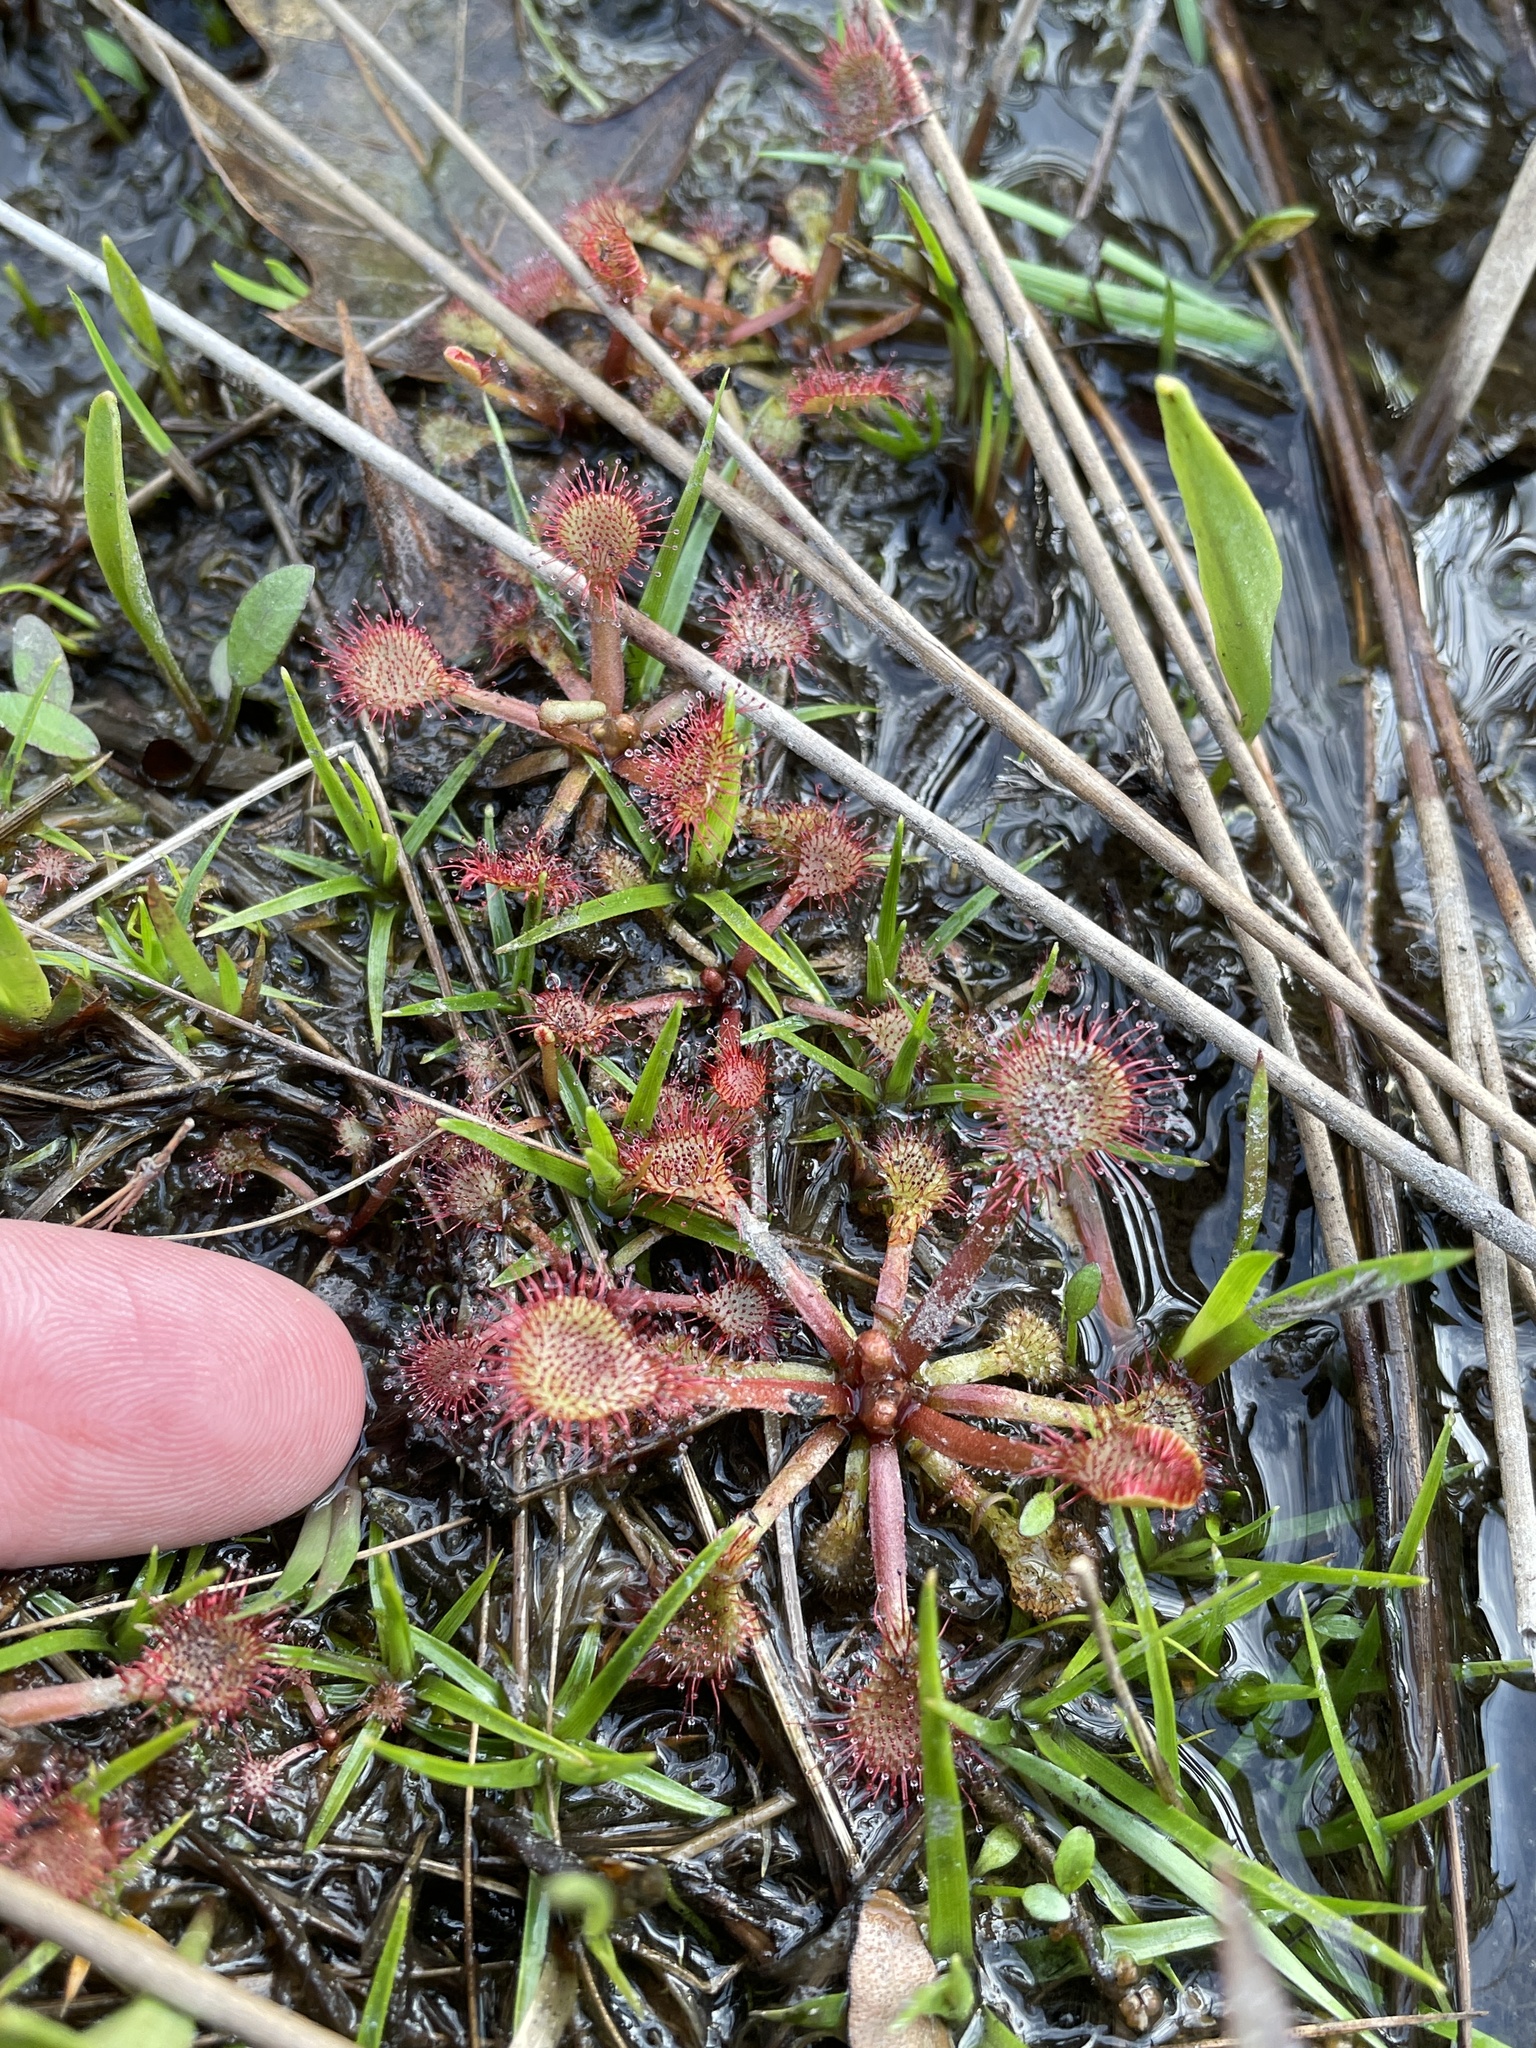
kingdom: Plantae
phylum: Tracheophyta
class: Magnoliopsida
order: Caryophyllales
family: Droseraceae
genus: Drosera
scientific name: Drosera capillaris
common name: Pink sundew
